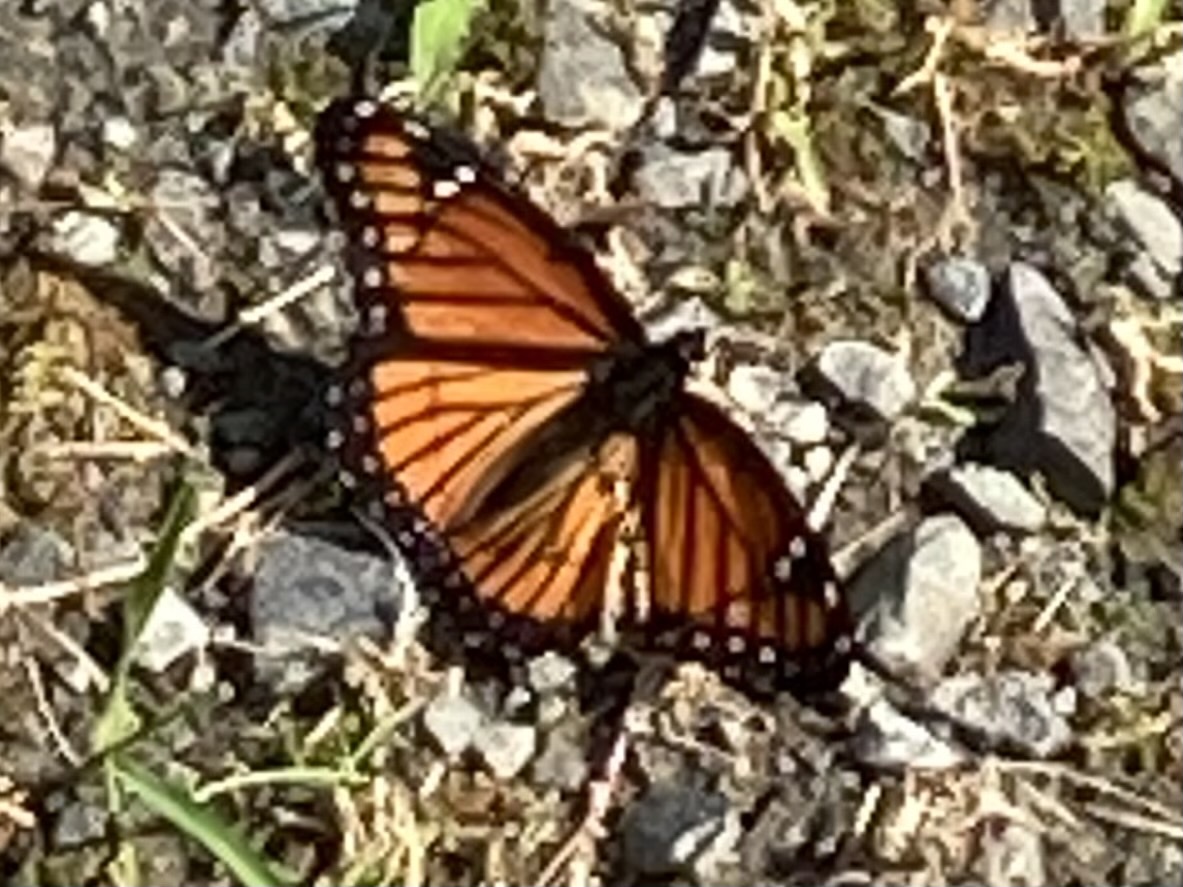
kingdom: Animalia
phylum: Arthropoda
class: Insecta
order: Lepidoptera
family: Nymphalidae
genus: Limenitis
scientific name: Limenitis archippus
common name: Viceroy
